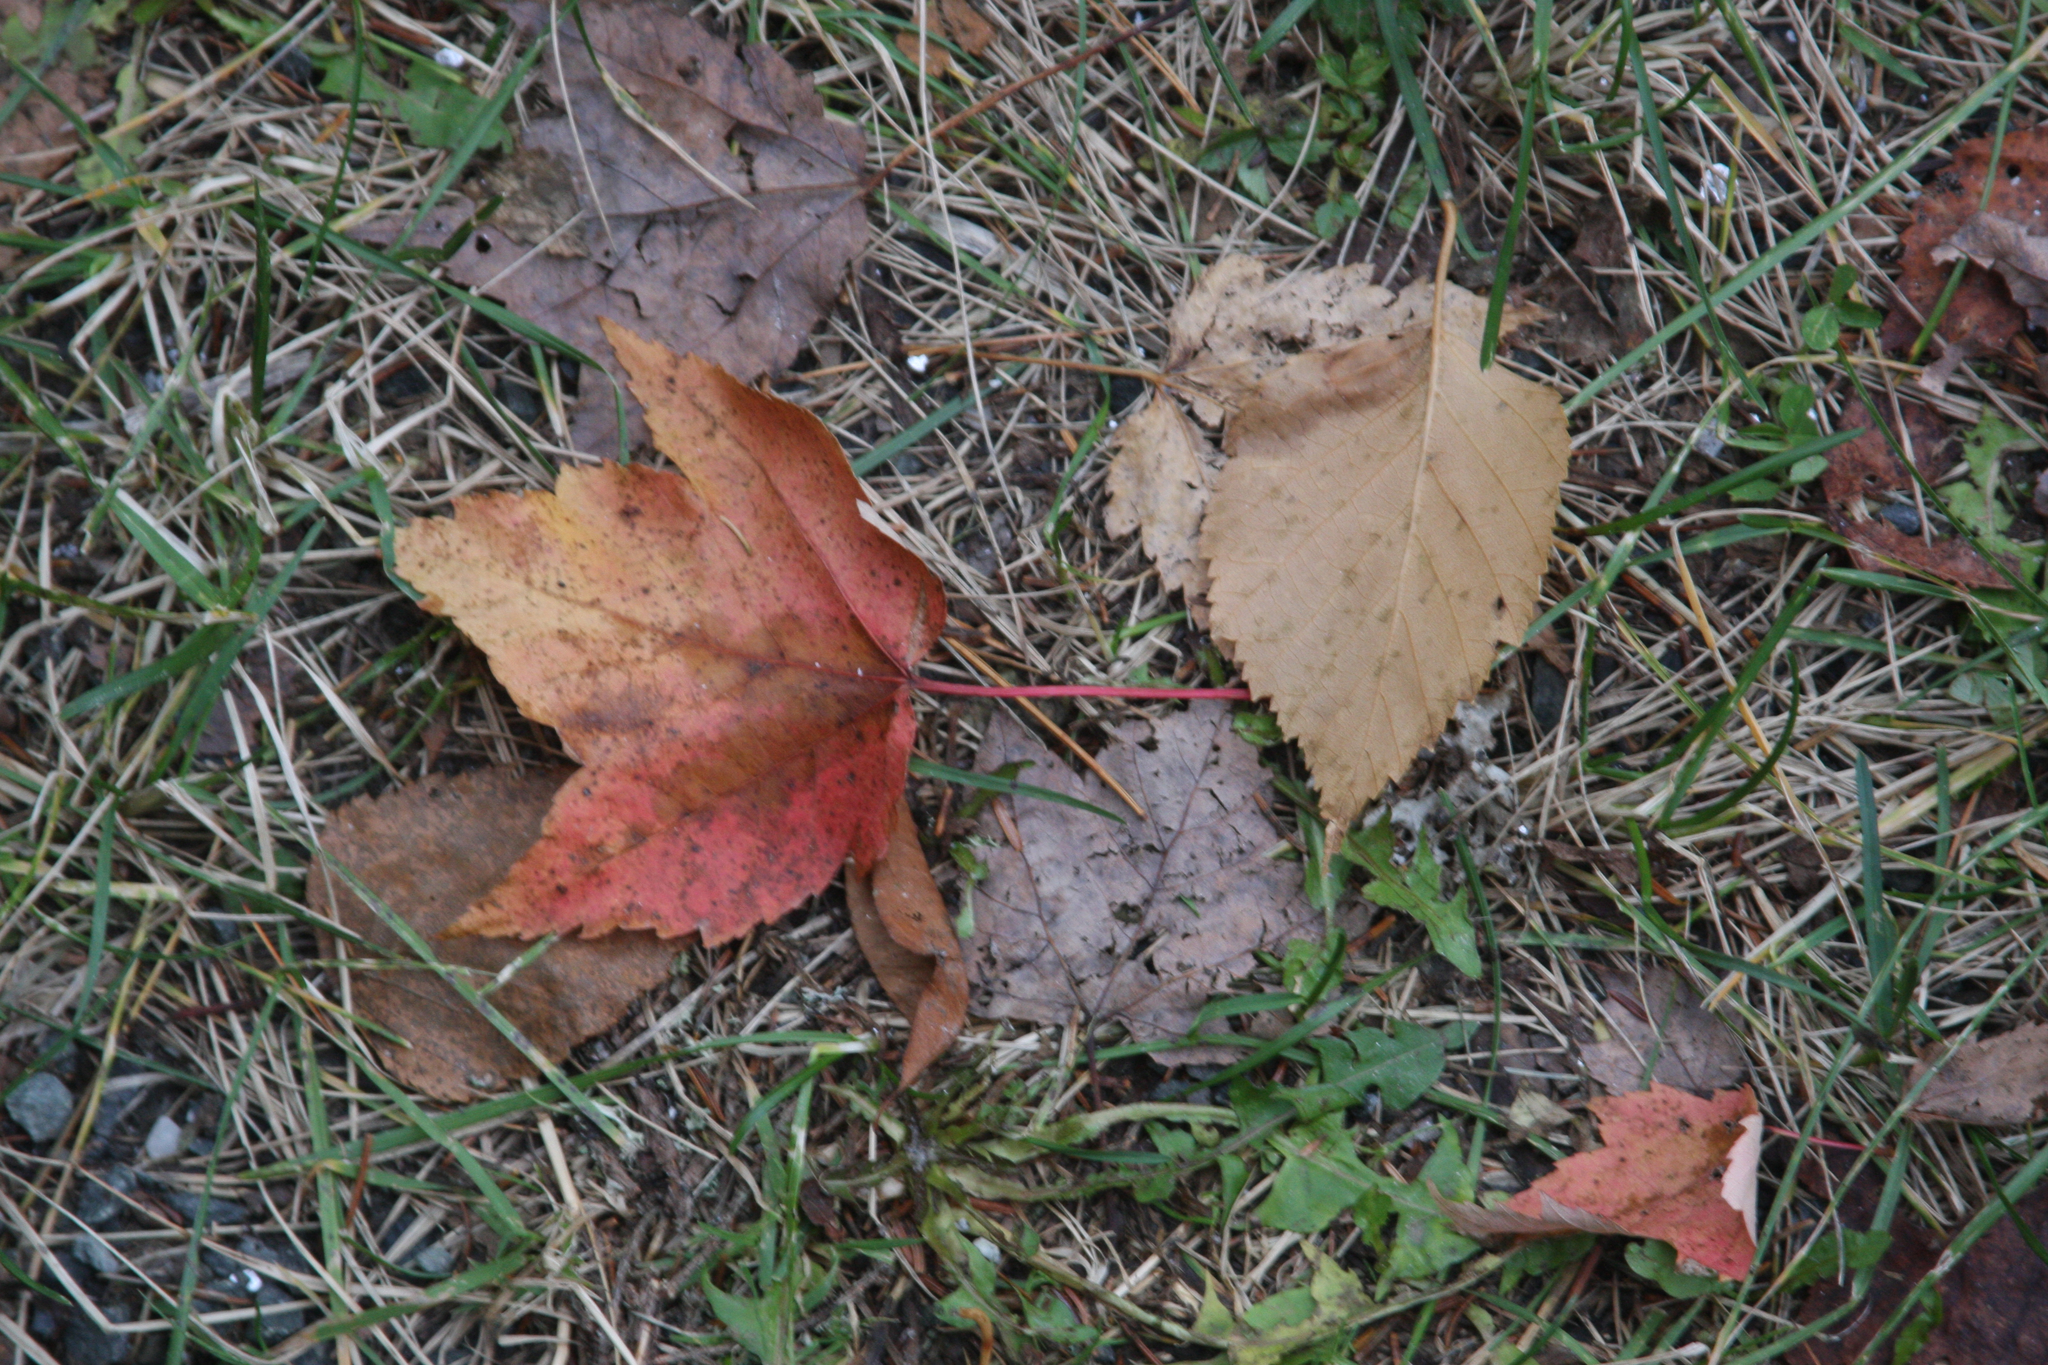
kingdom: Plantae
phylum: Tracheophyta
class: Magnoliopsida
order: Sapindales
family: Sapindaceae
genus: Acer
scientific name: Acer rubrum
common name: Red maple
